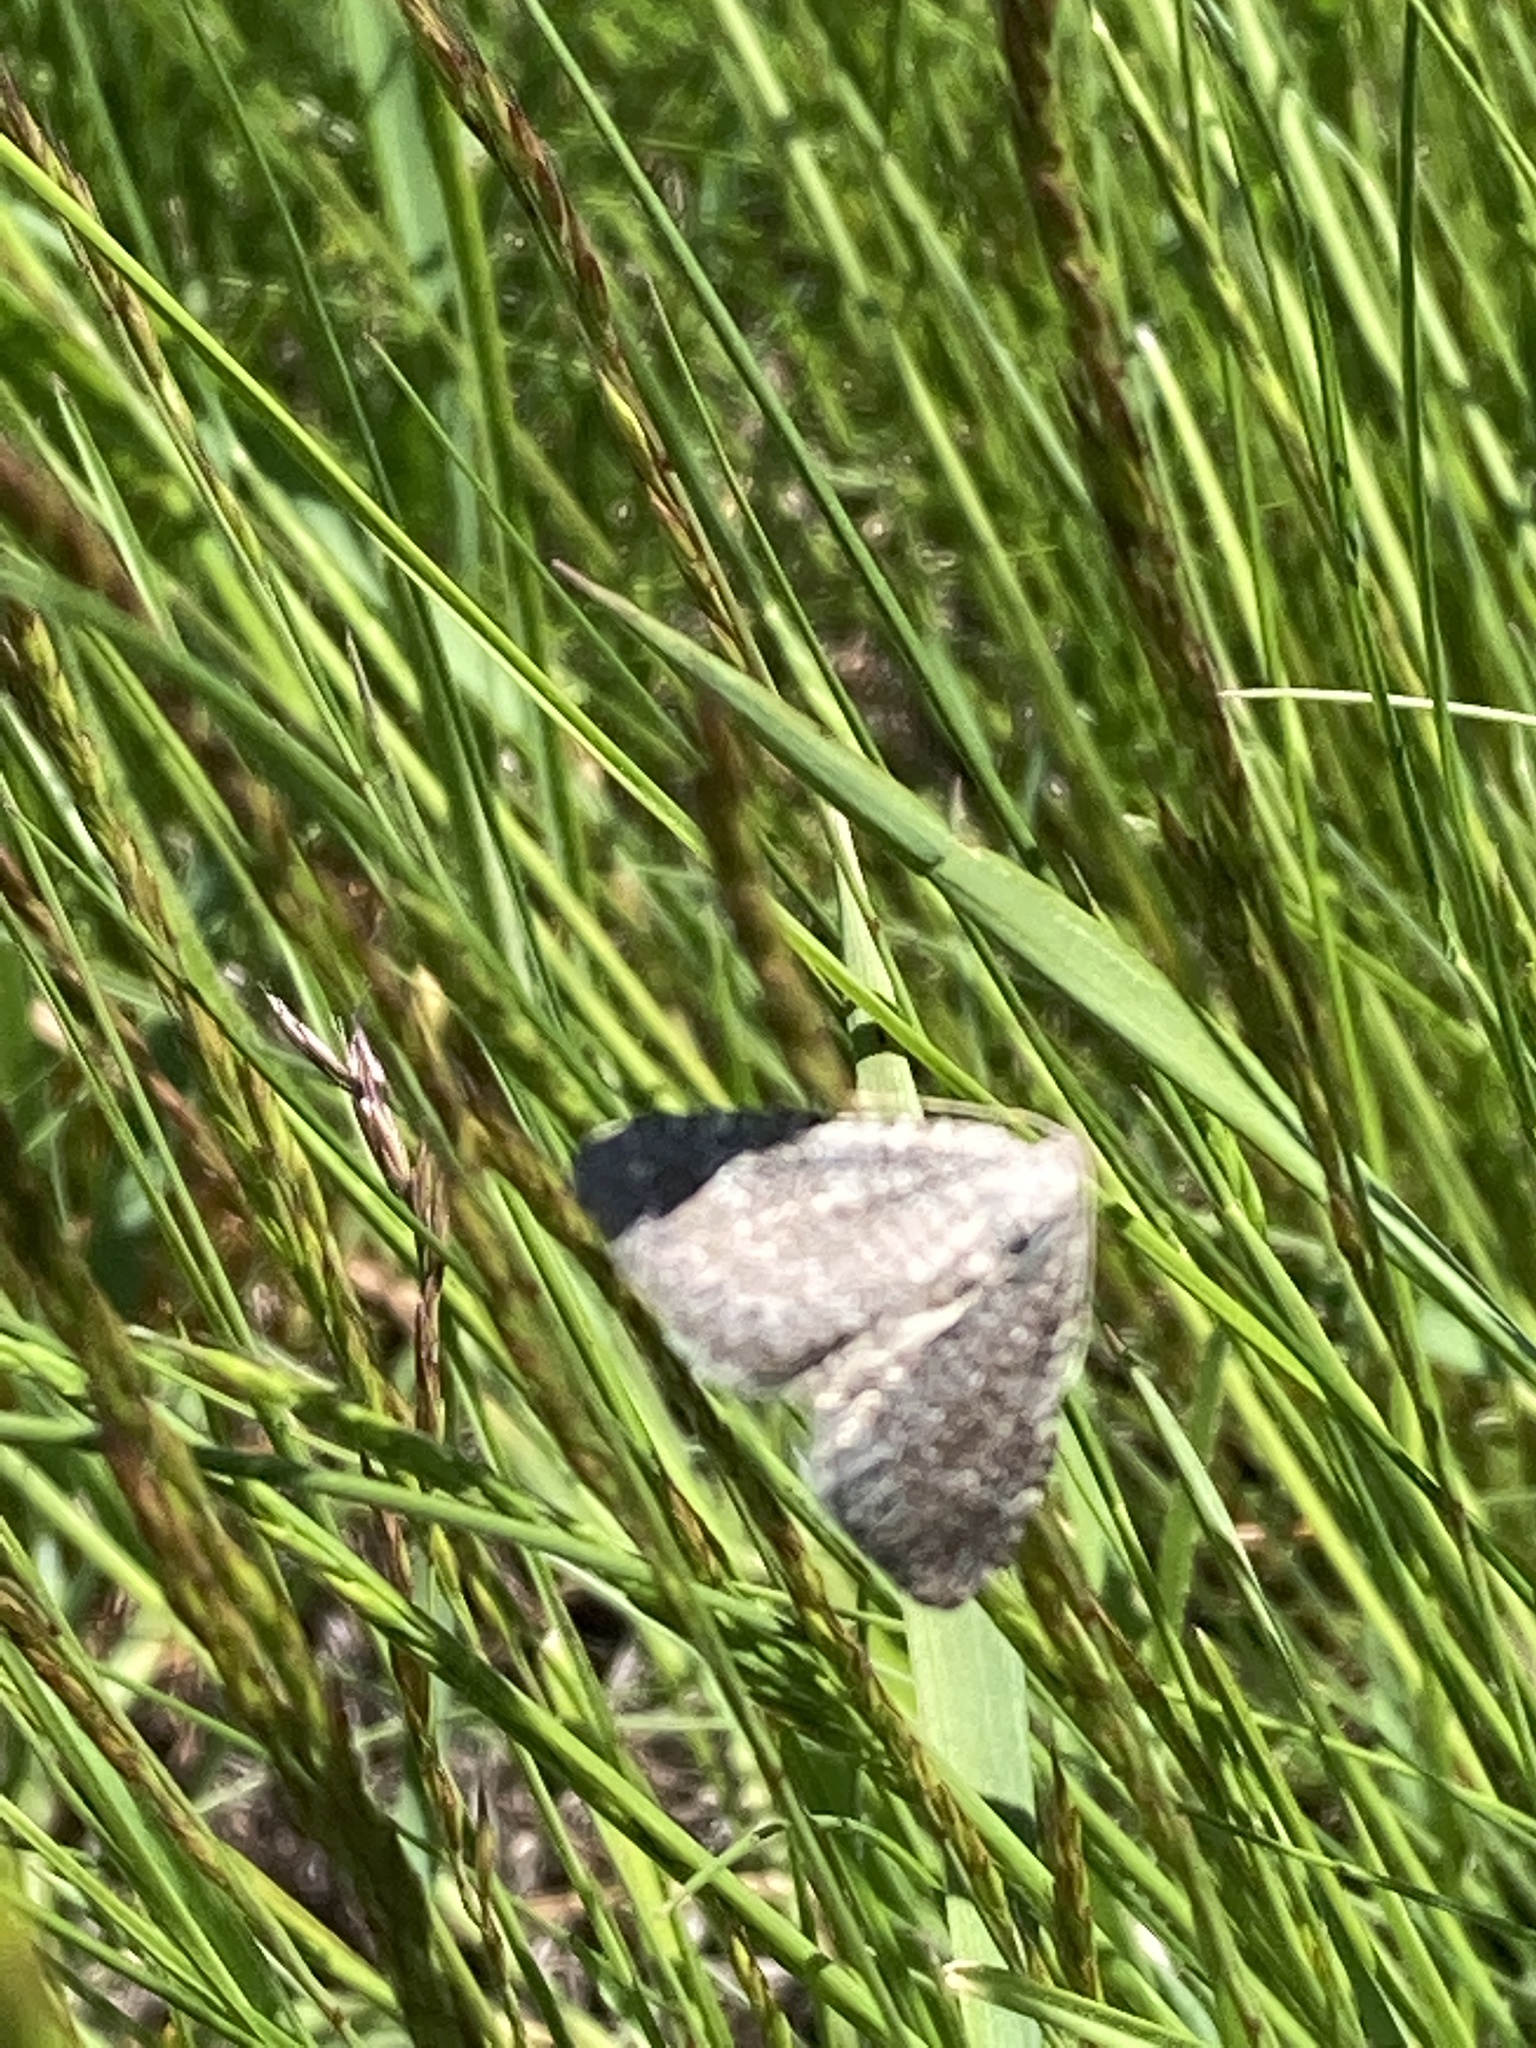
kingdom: Animalia
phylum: Arthropoda
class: Insecta
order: Lepidoptera
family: Geometridae
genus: Cataclysme
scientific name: Cataclysme riguata
